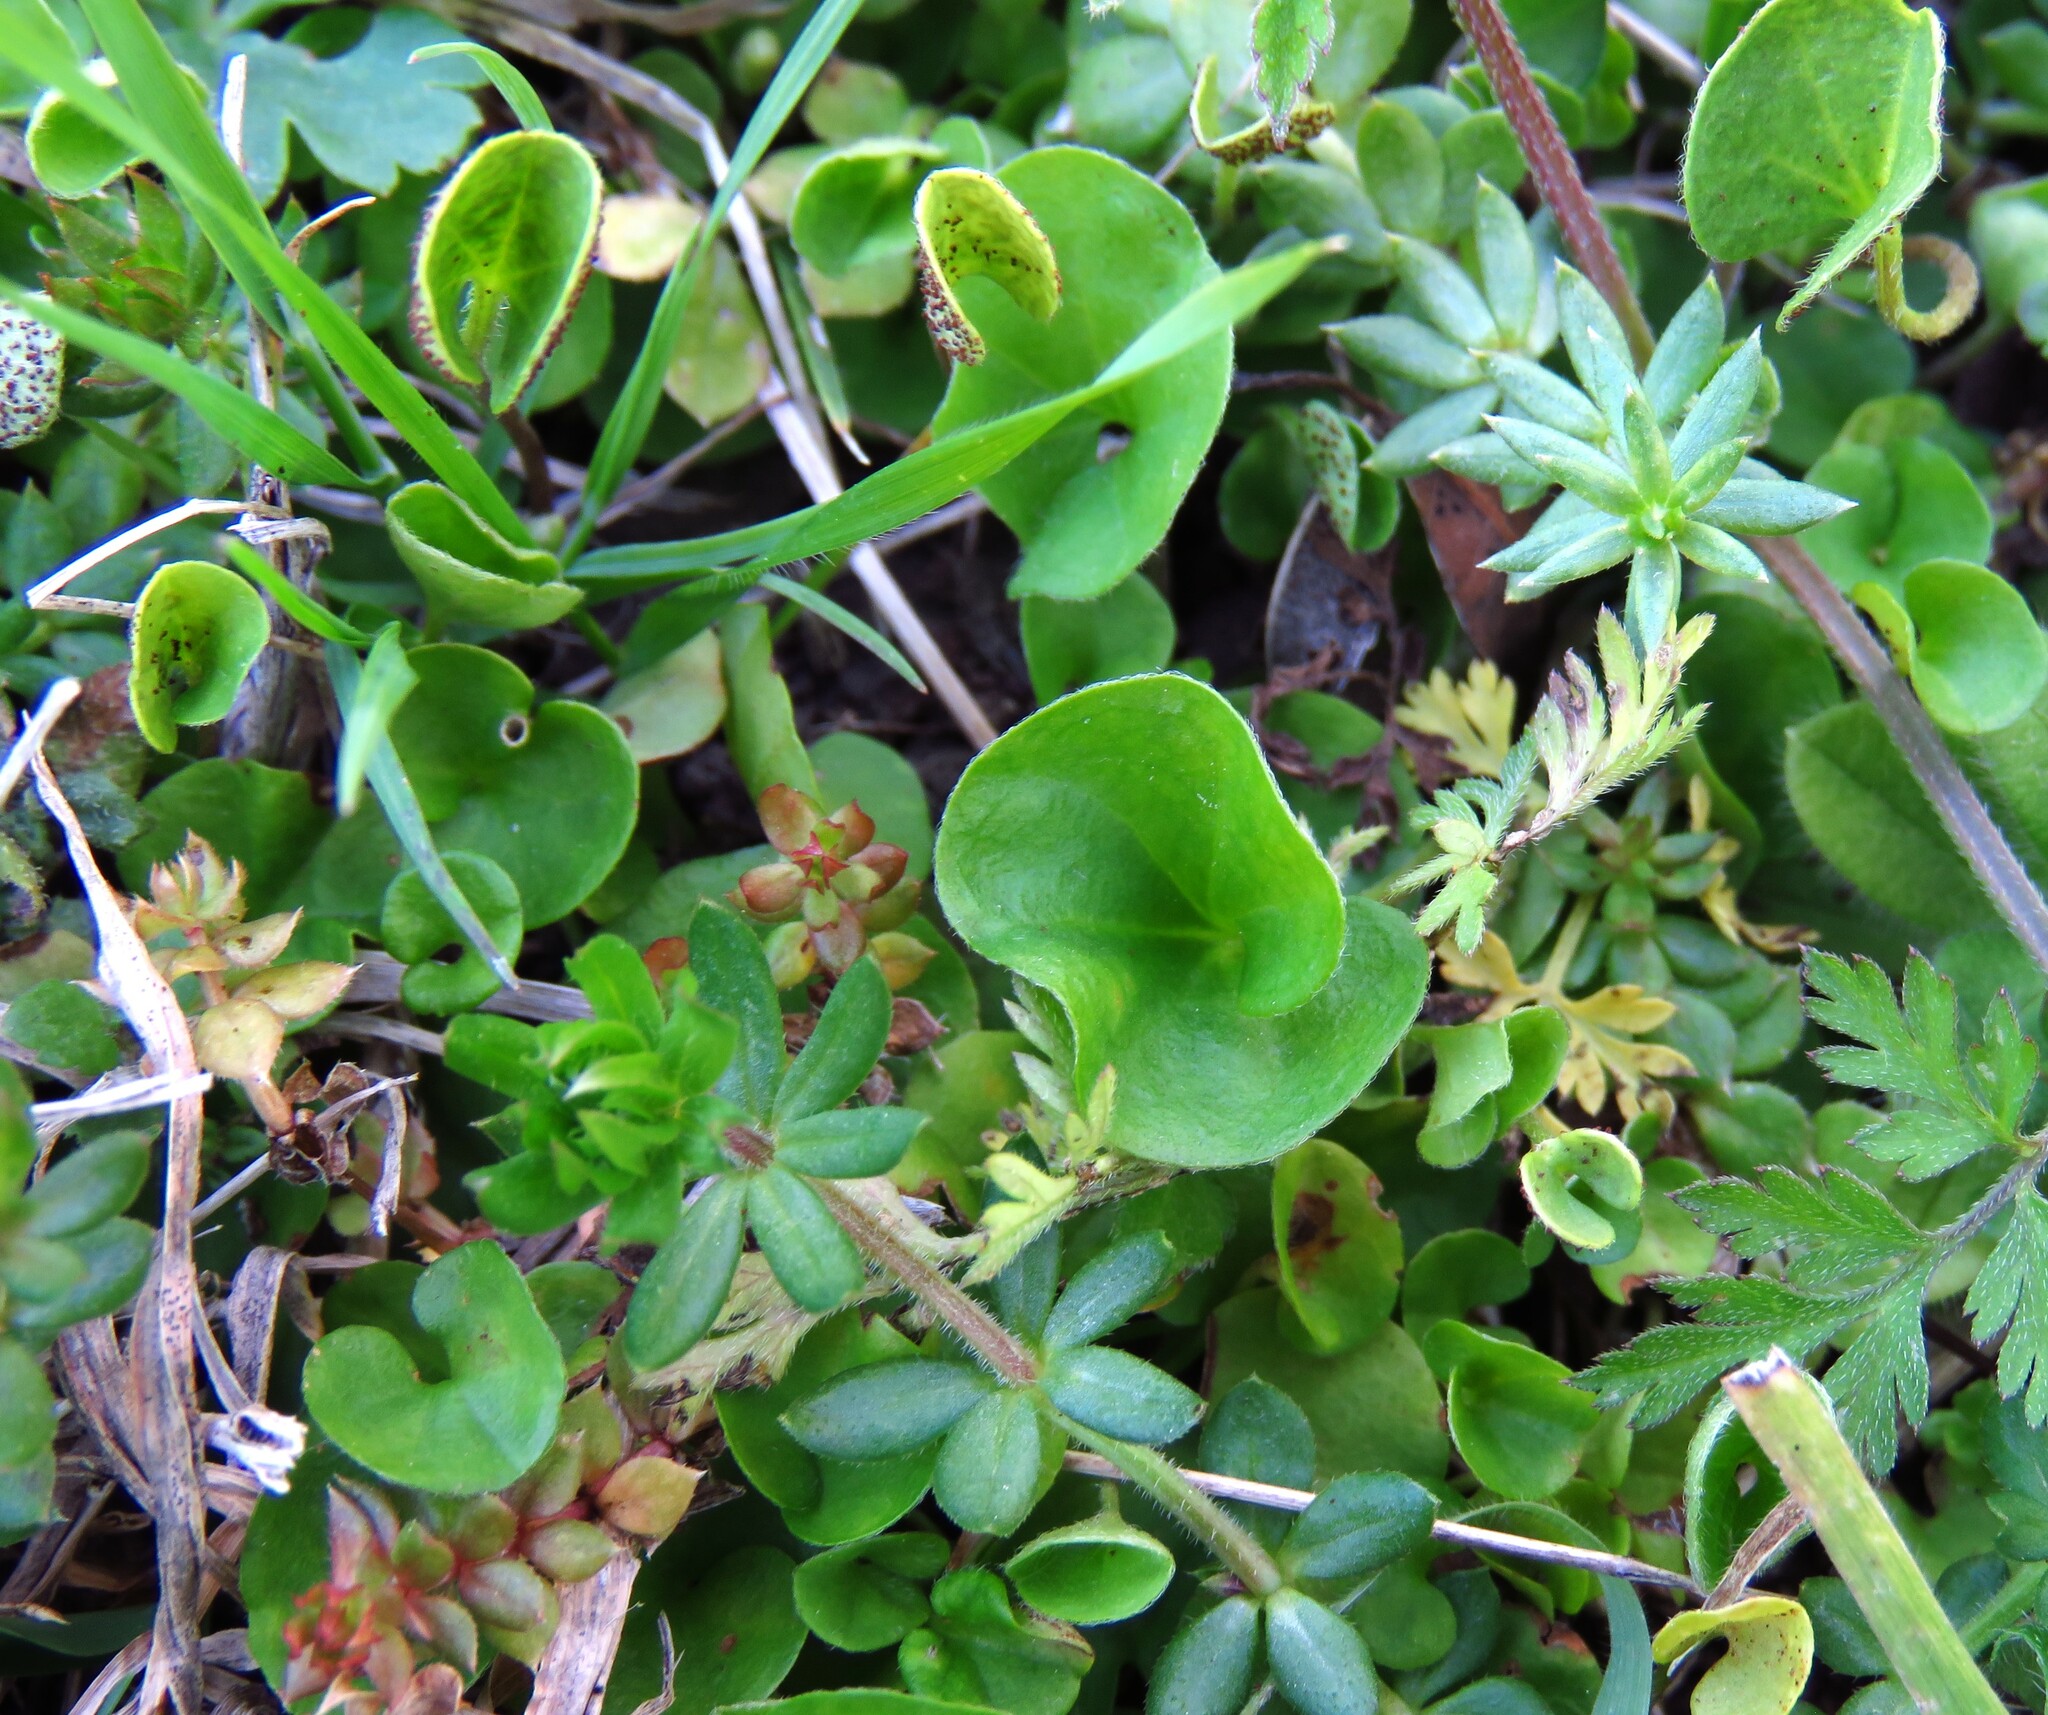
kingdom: Plantae
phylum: Tracheophyta
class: Magnoliopsida
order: Solanales
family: Convolvulaceae
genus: Dichondra
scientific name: Dichondra carolinensis
